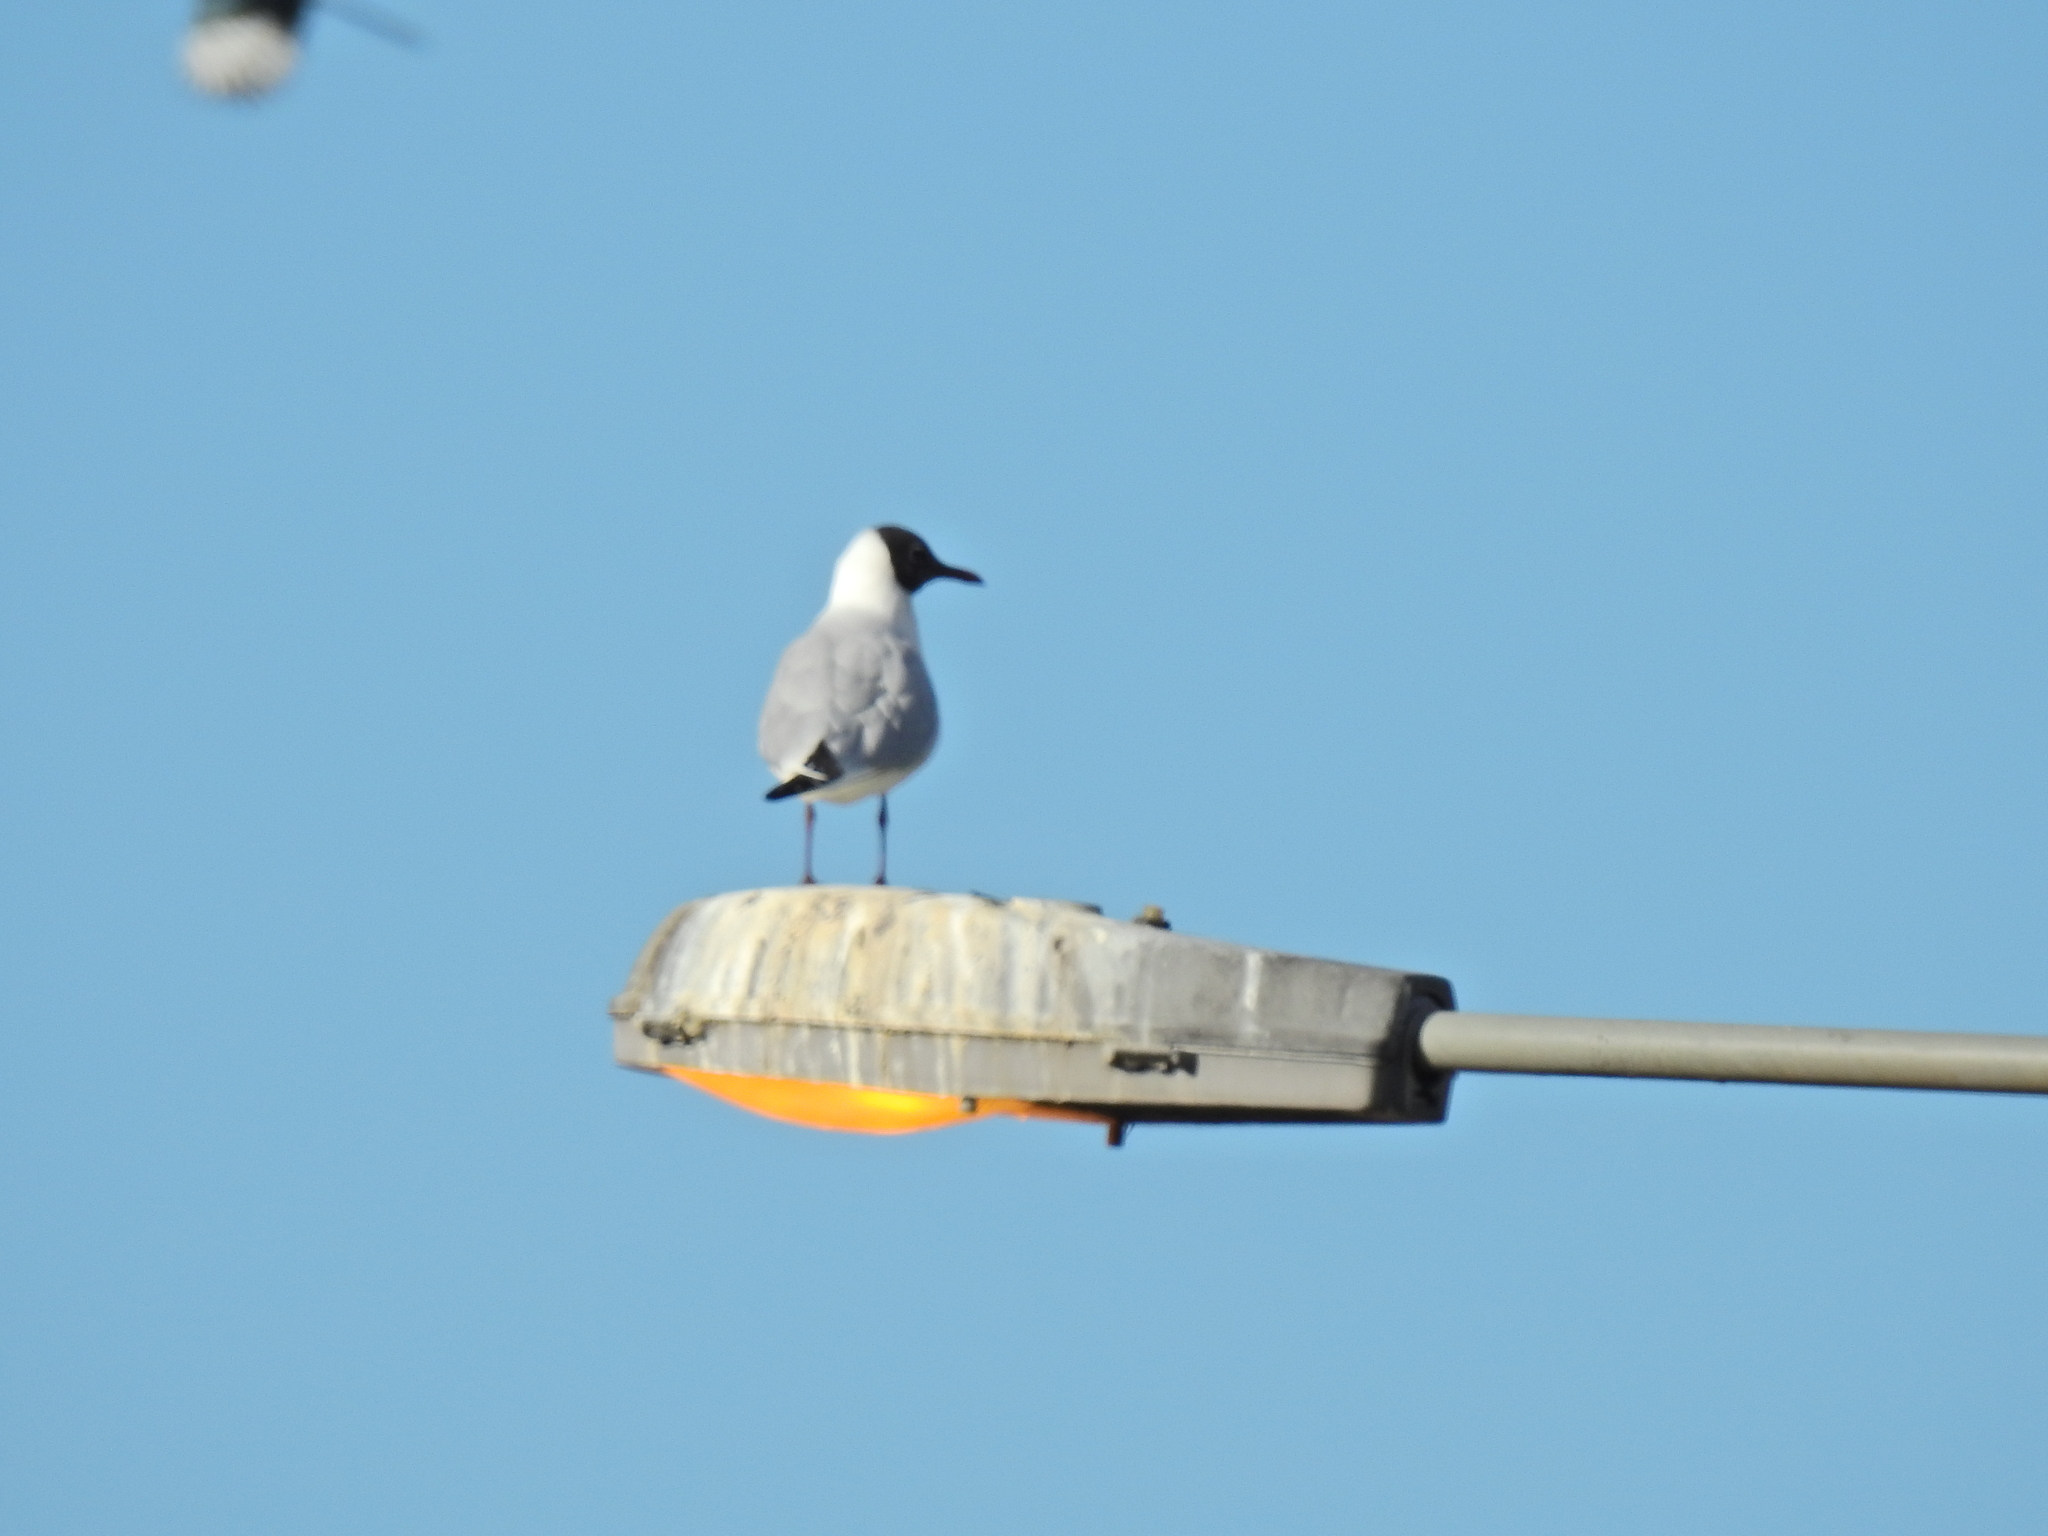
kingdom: Animalia
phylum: Chordata
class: Aves
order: Charadriiformes
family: Laridae
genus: Chroicocephalus
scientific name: Chroicocephalus ridibundus
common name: Black-headed gull
